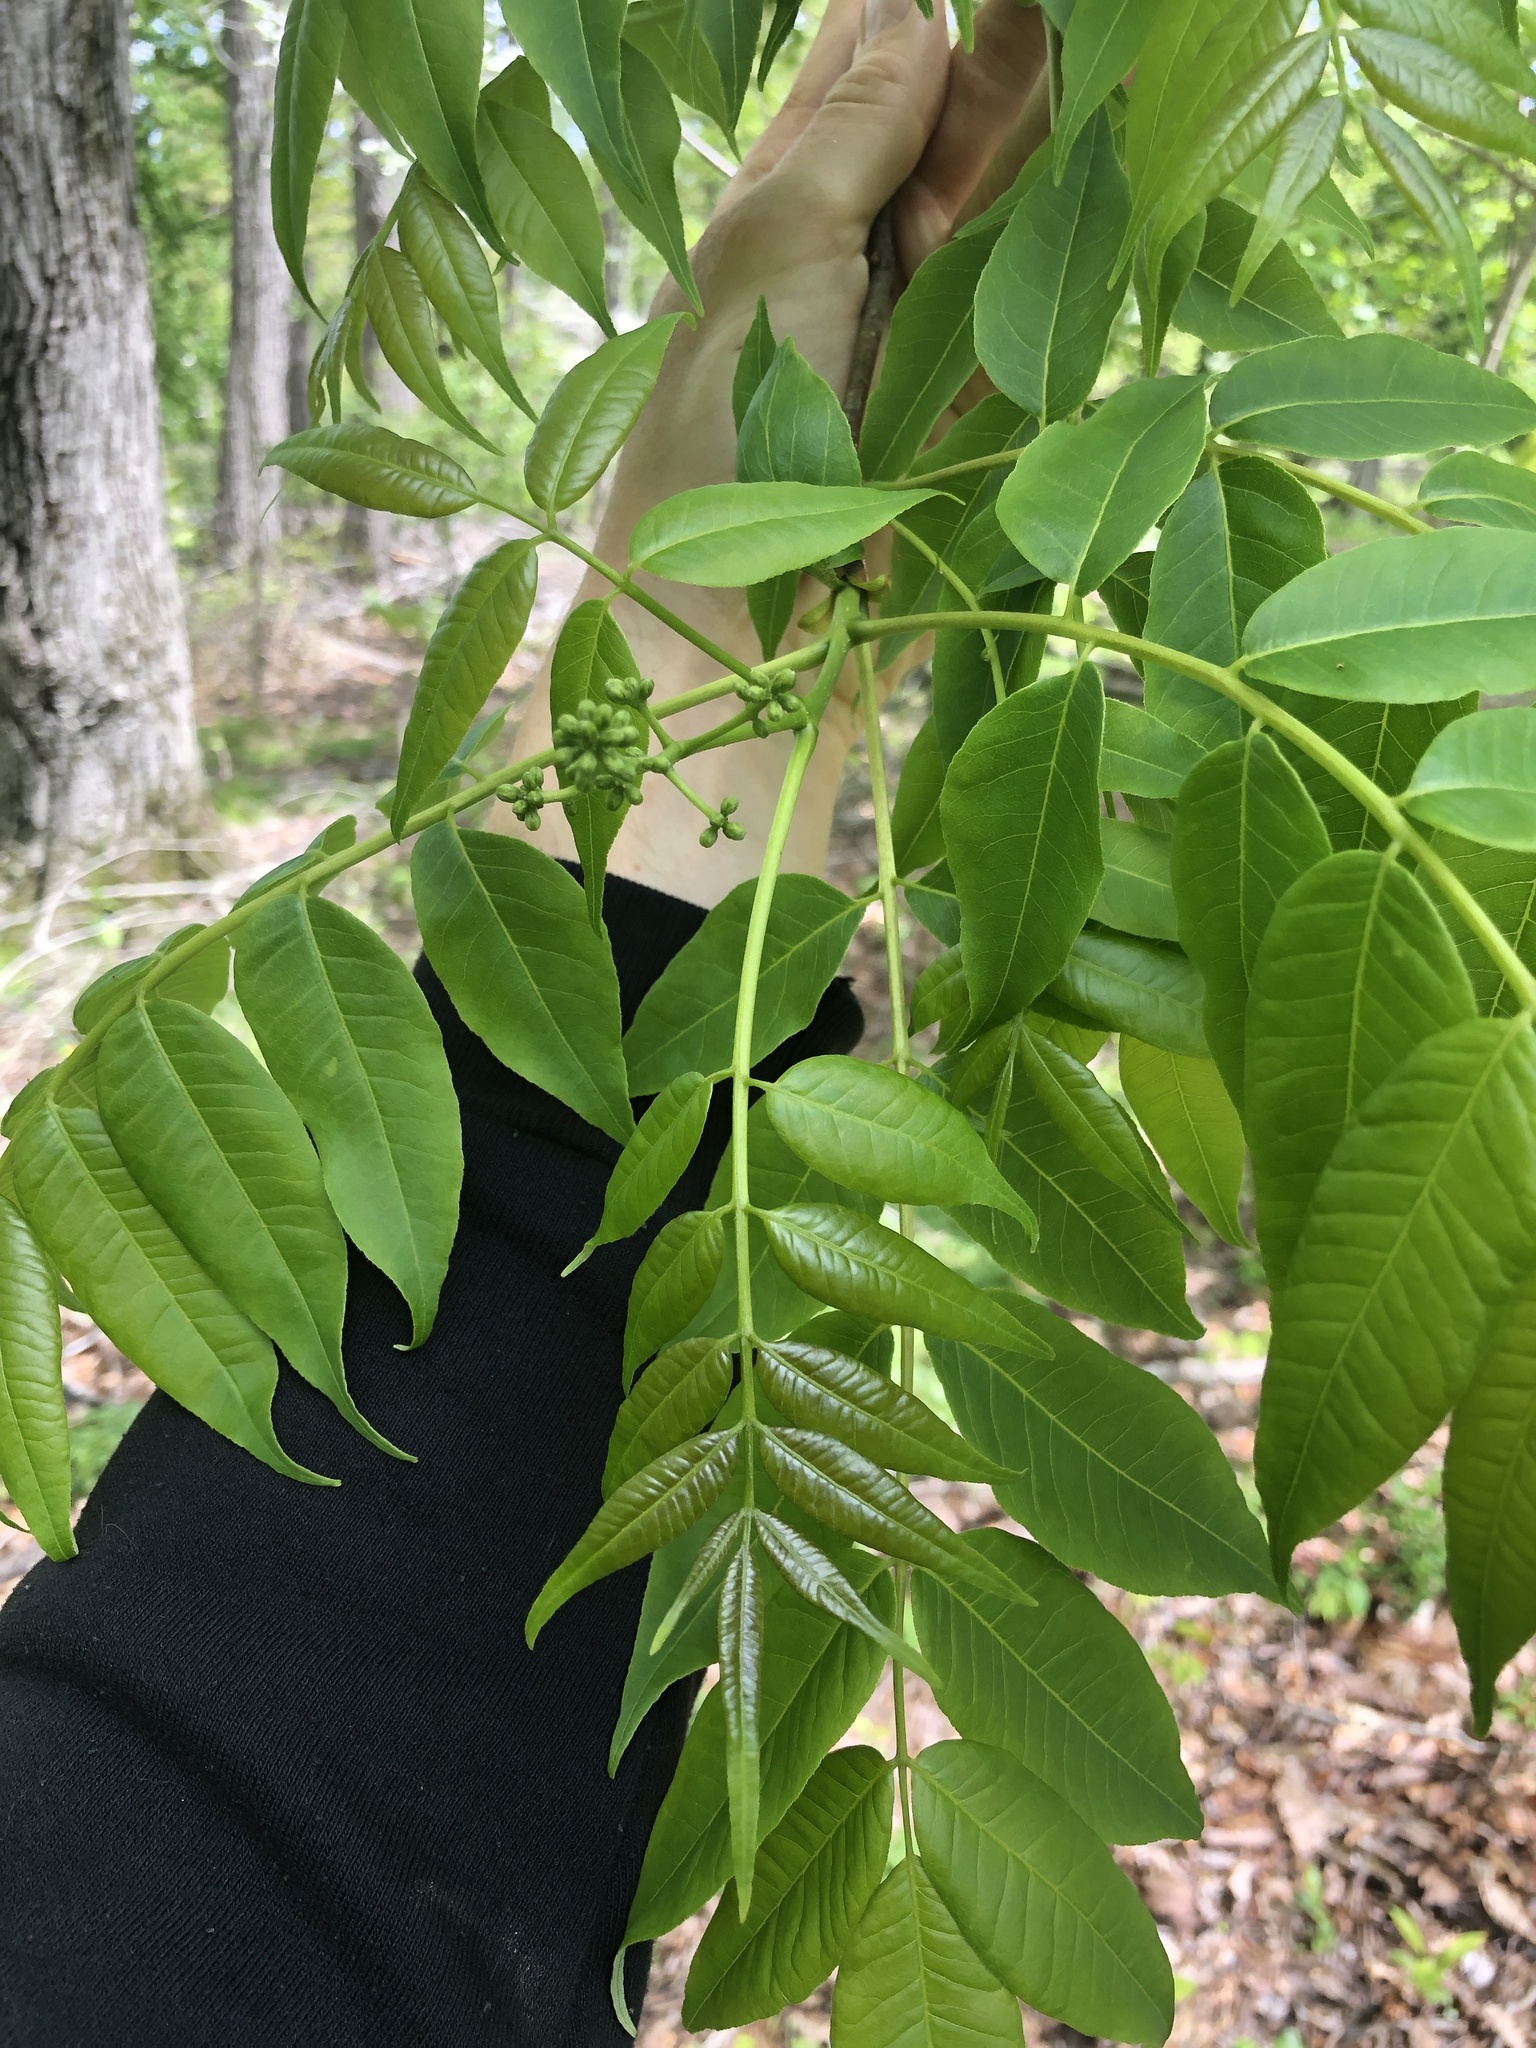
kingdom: Plantae
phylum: Tracheophyta
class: Magnoliopsida
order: Sapindales
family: Rutaceae
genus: Phellodendron
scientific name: Phellodendron amurense
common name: Amur corktree
